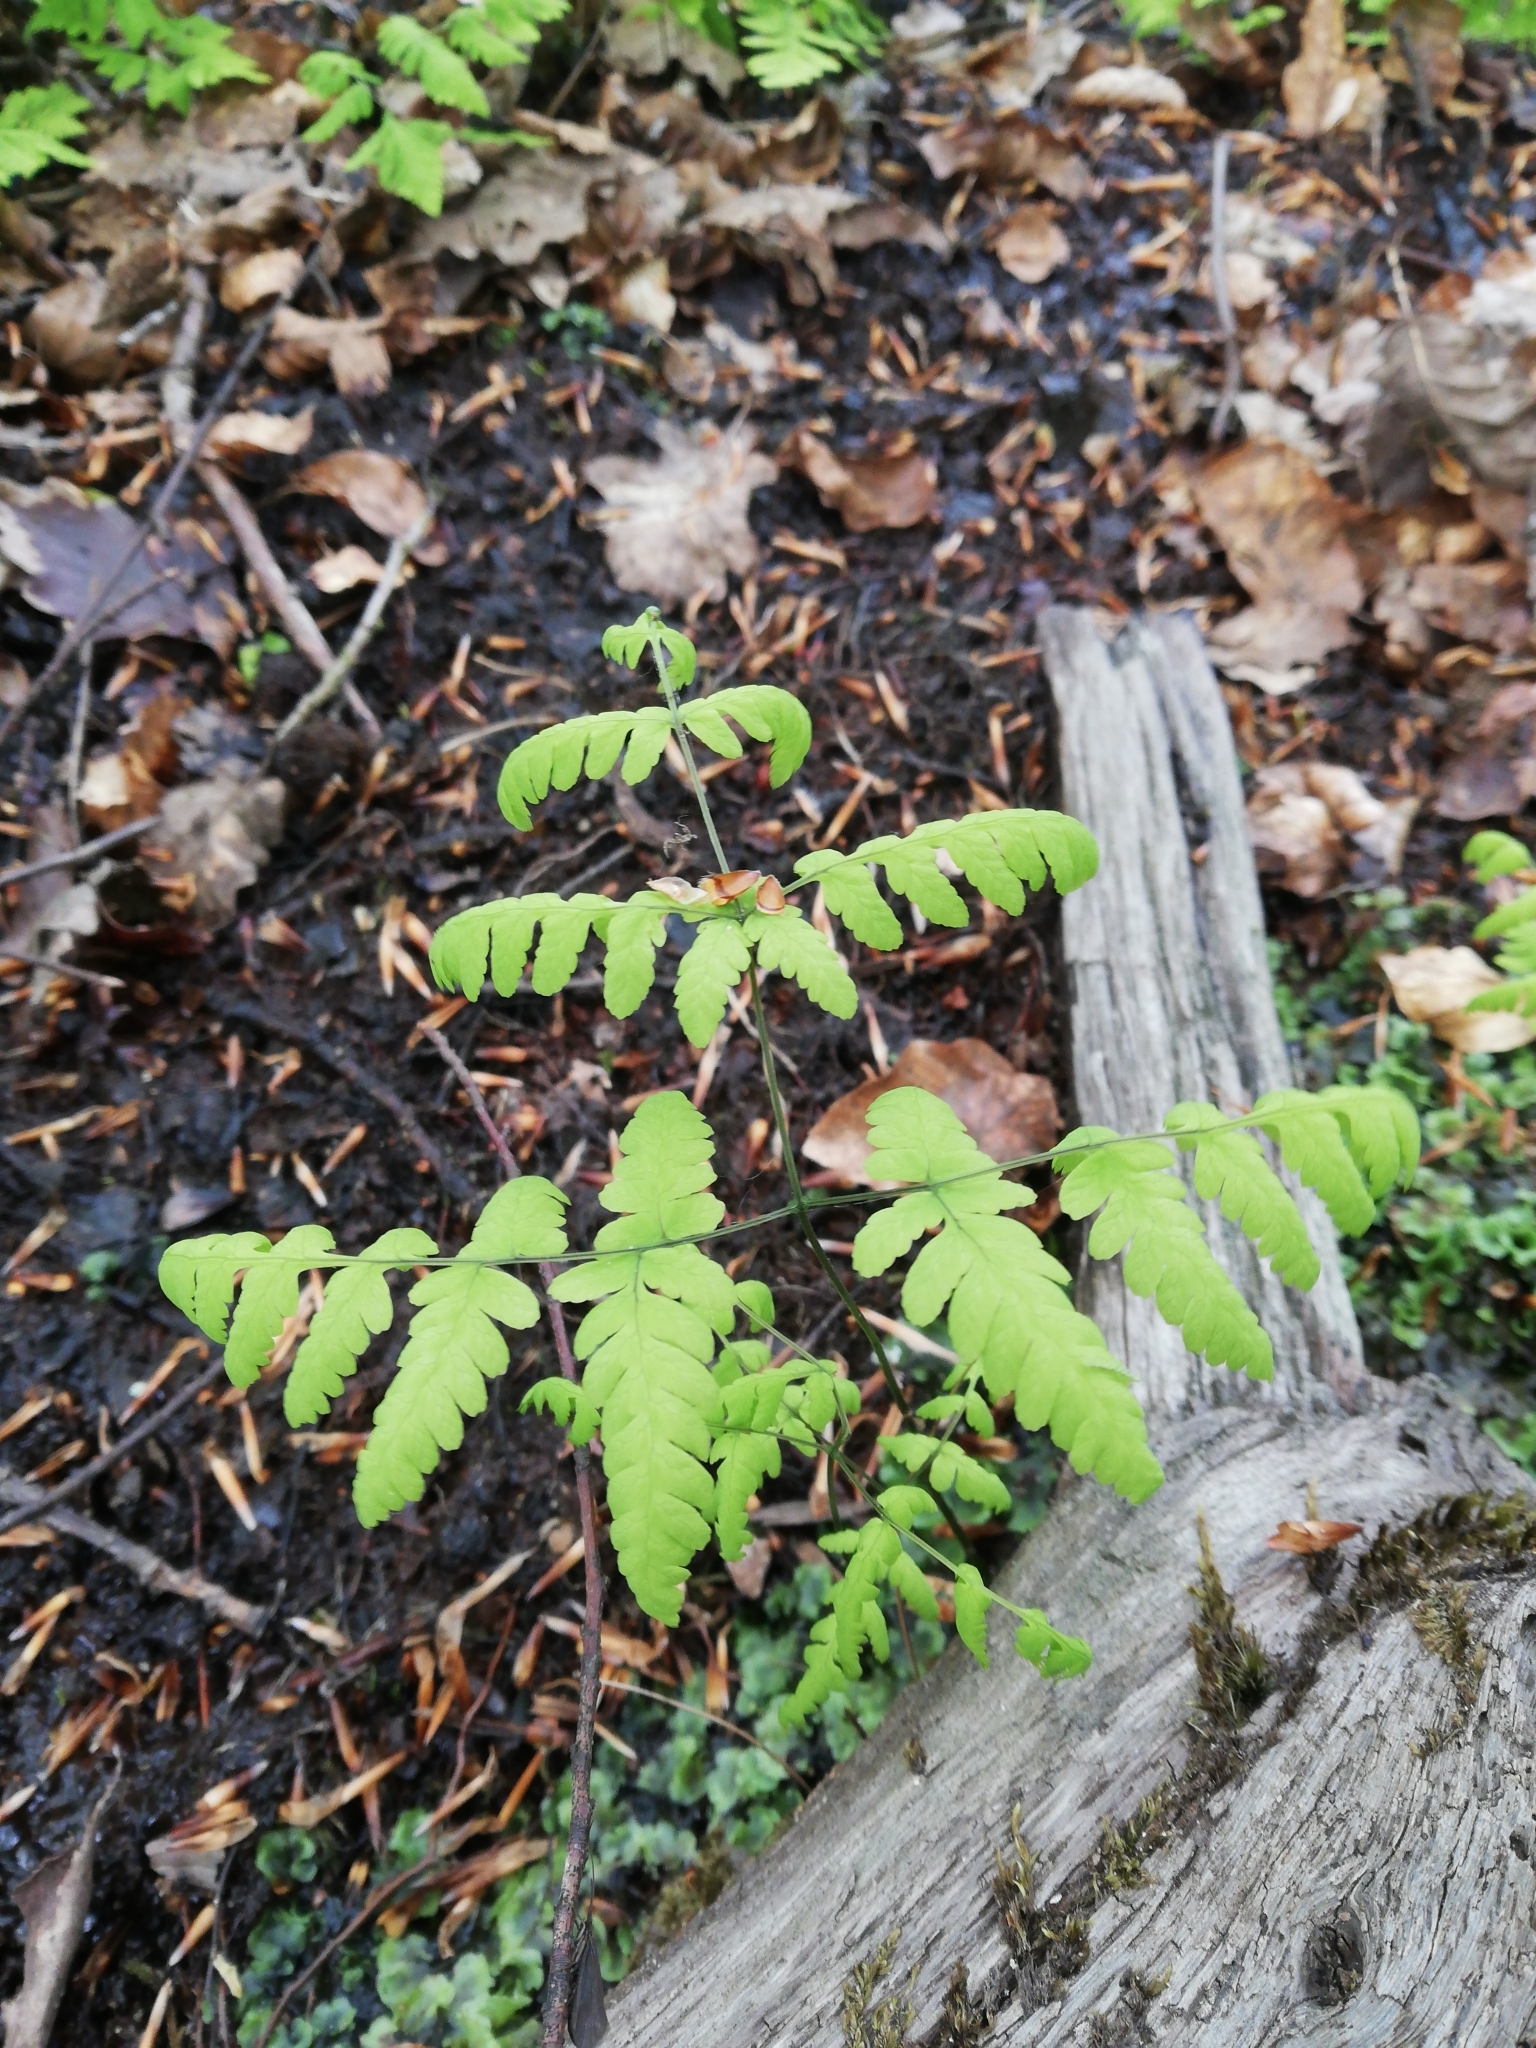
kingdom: Plantae
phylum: Tracheophyta
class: Polypodiopsida
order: Polypodiales
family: Cystopteridaceae
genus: Gymnocarpium
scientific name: Gymnocarpium dryopteris
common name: Oak fern
